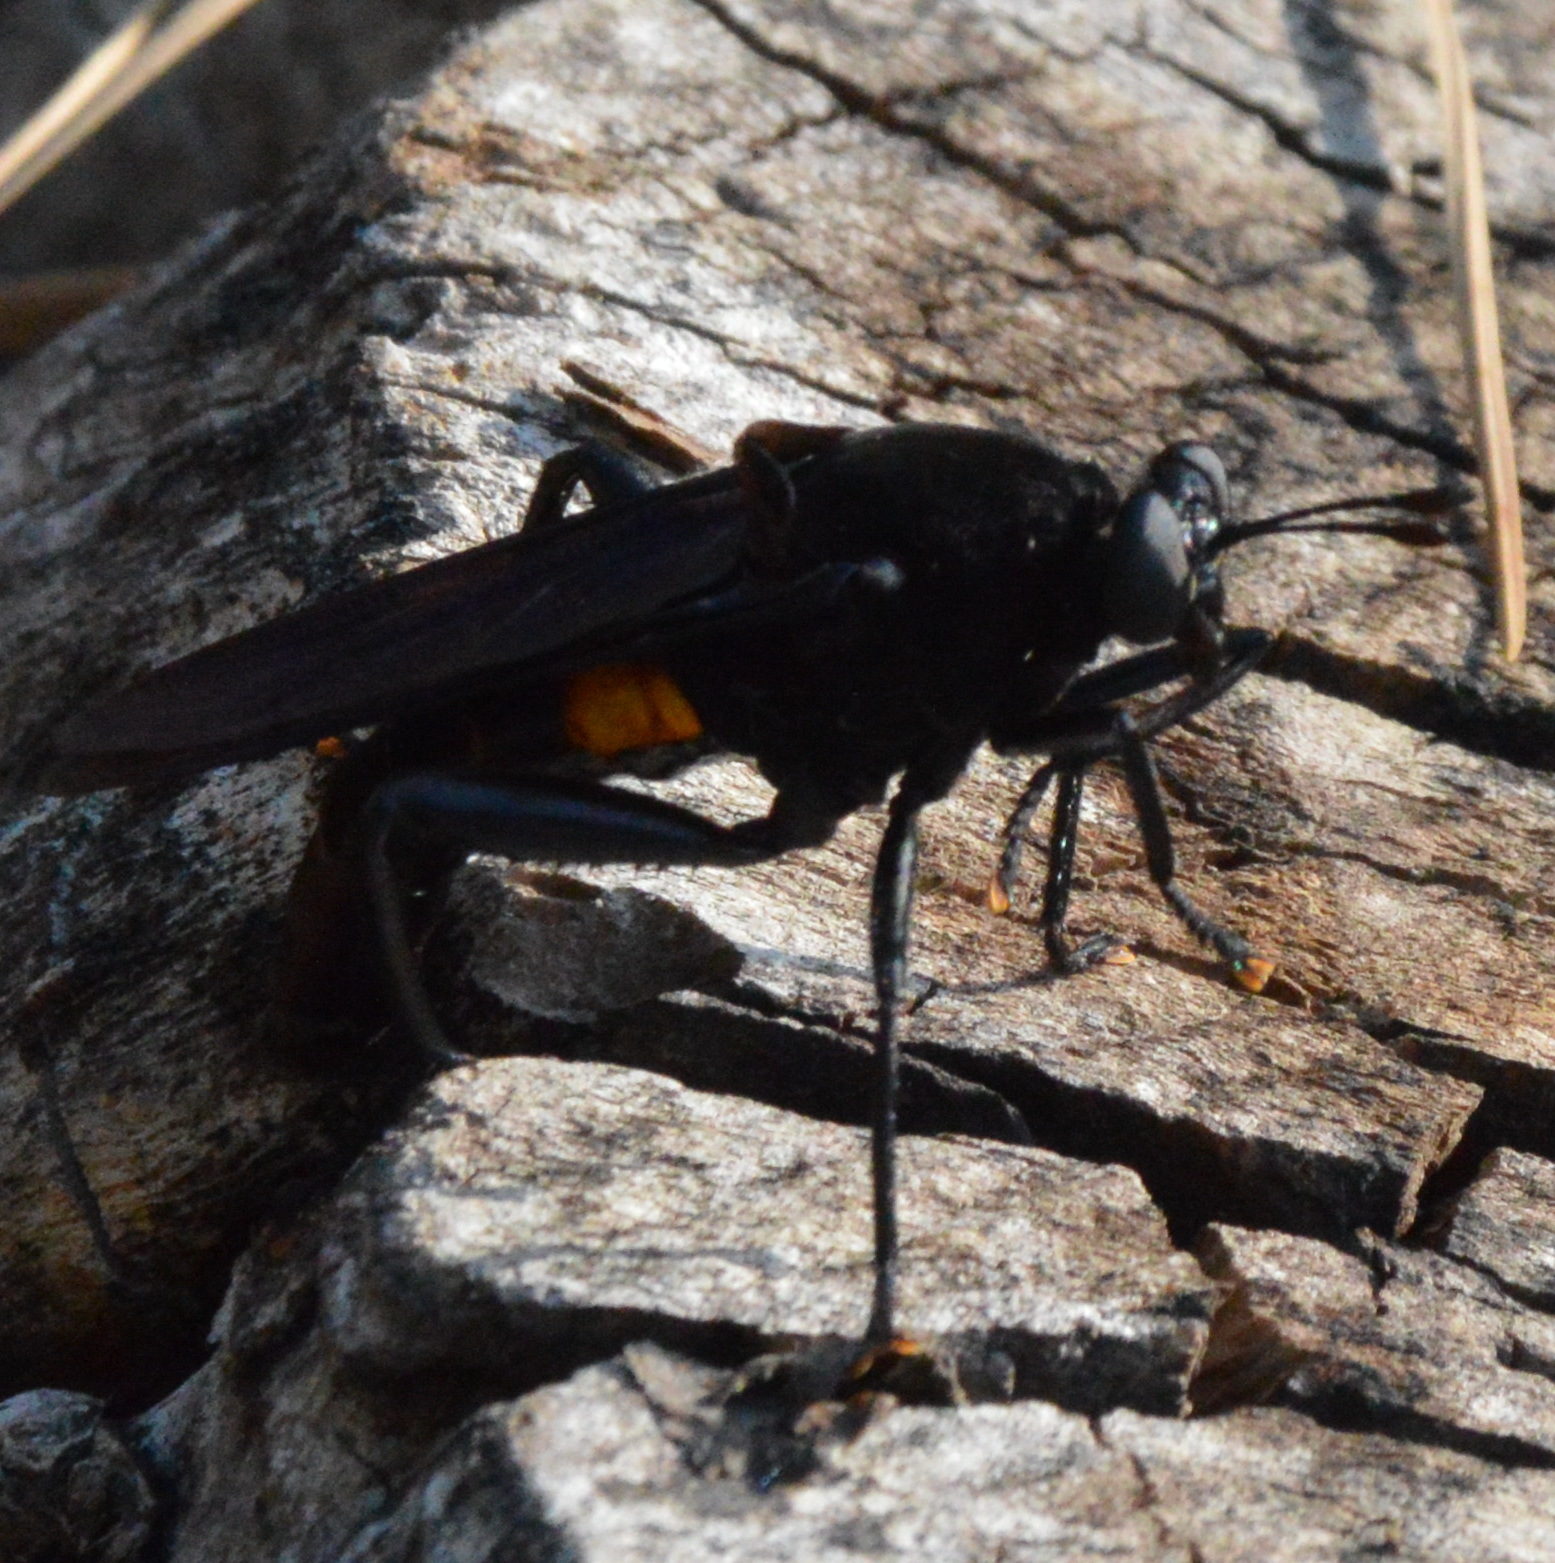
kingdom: Animalia
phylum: Arthropoda
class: Insecta
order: Diptera
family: Mydidae
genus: Mydas
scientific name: Mydas clavatus
